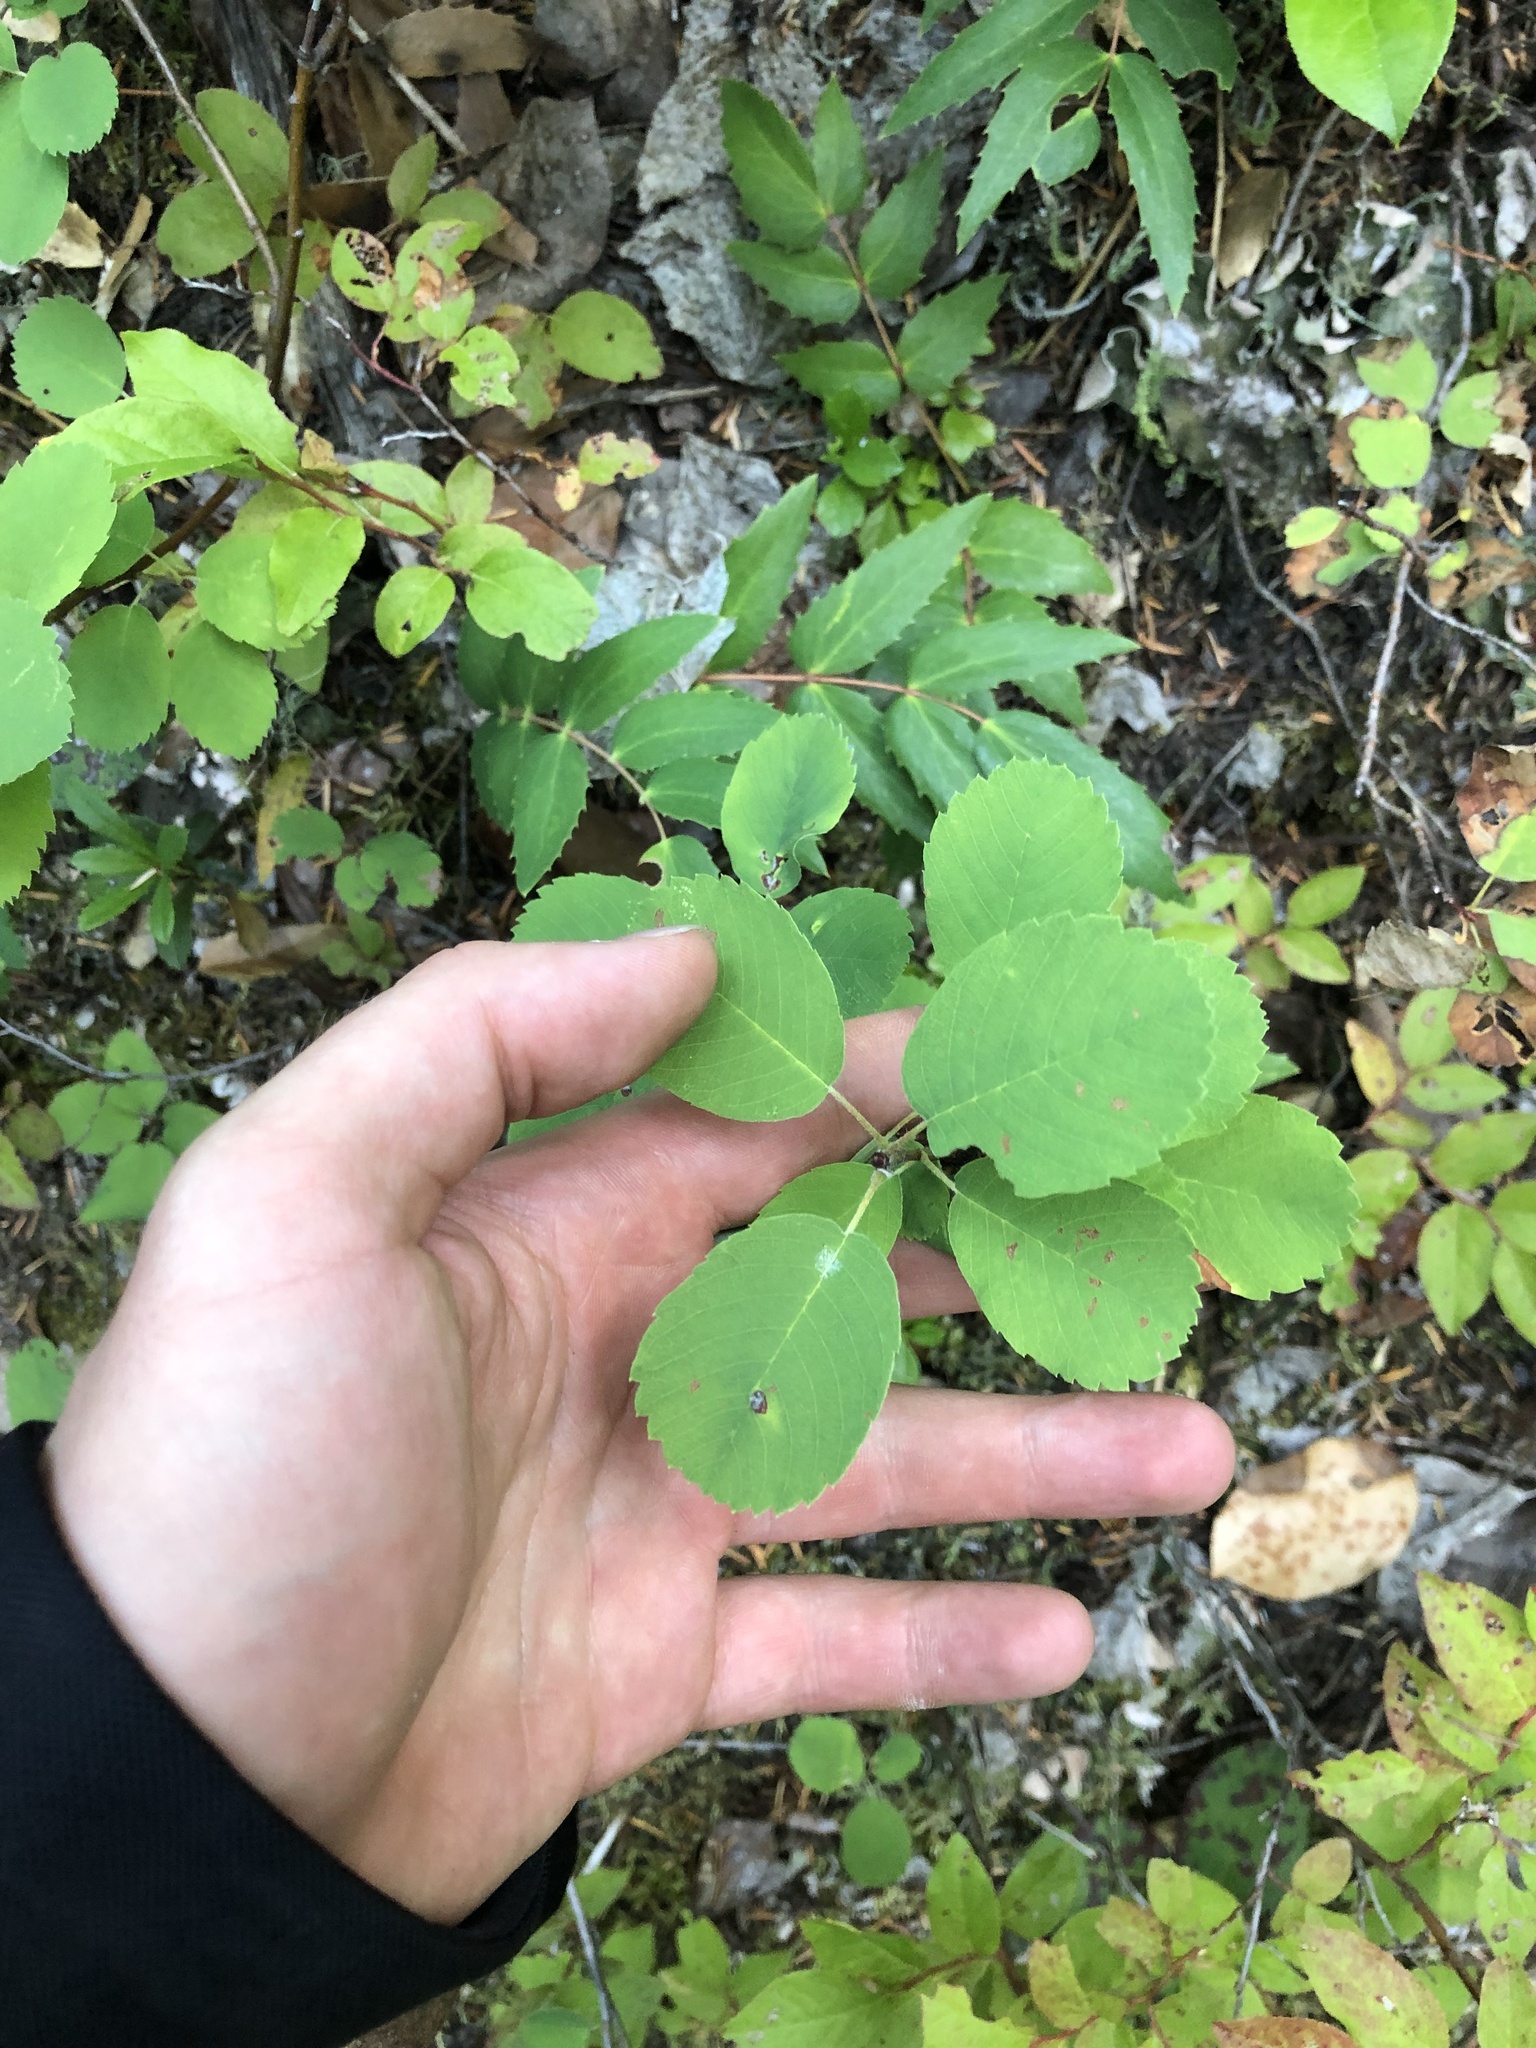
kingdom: Plantae
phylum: Tracheophyta
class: Magnoliopsida
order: Rosales
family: Rosaceae
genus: Amelanchier
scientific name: Amelanchier alnifolia
